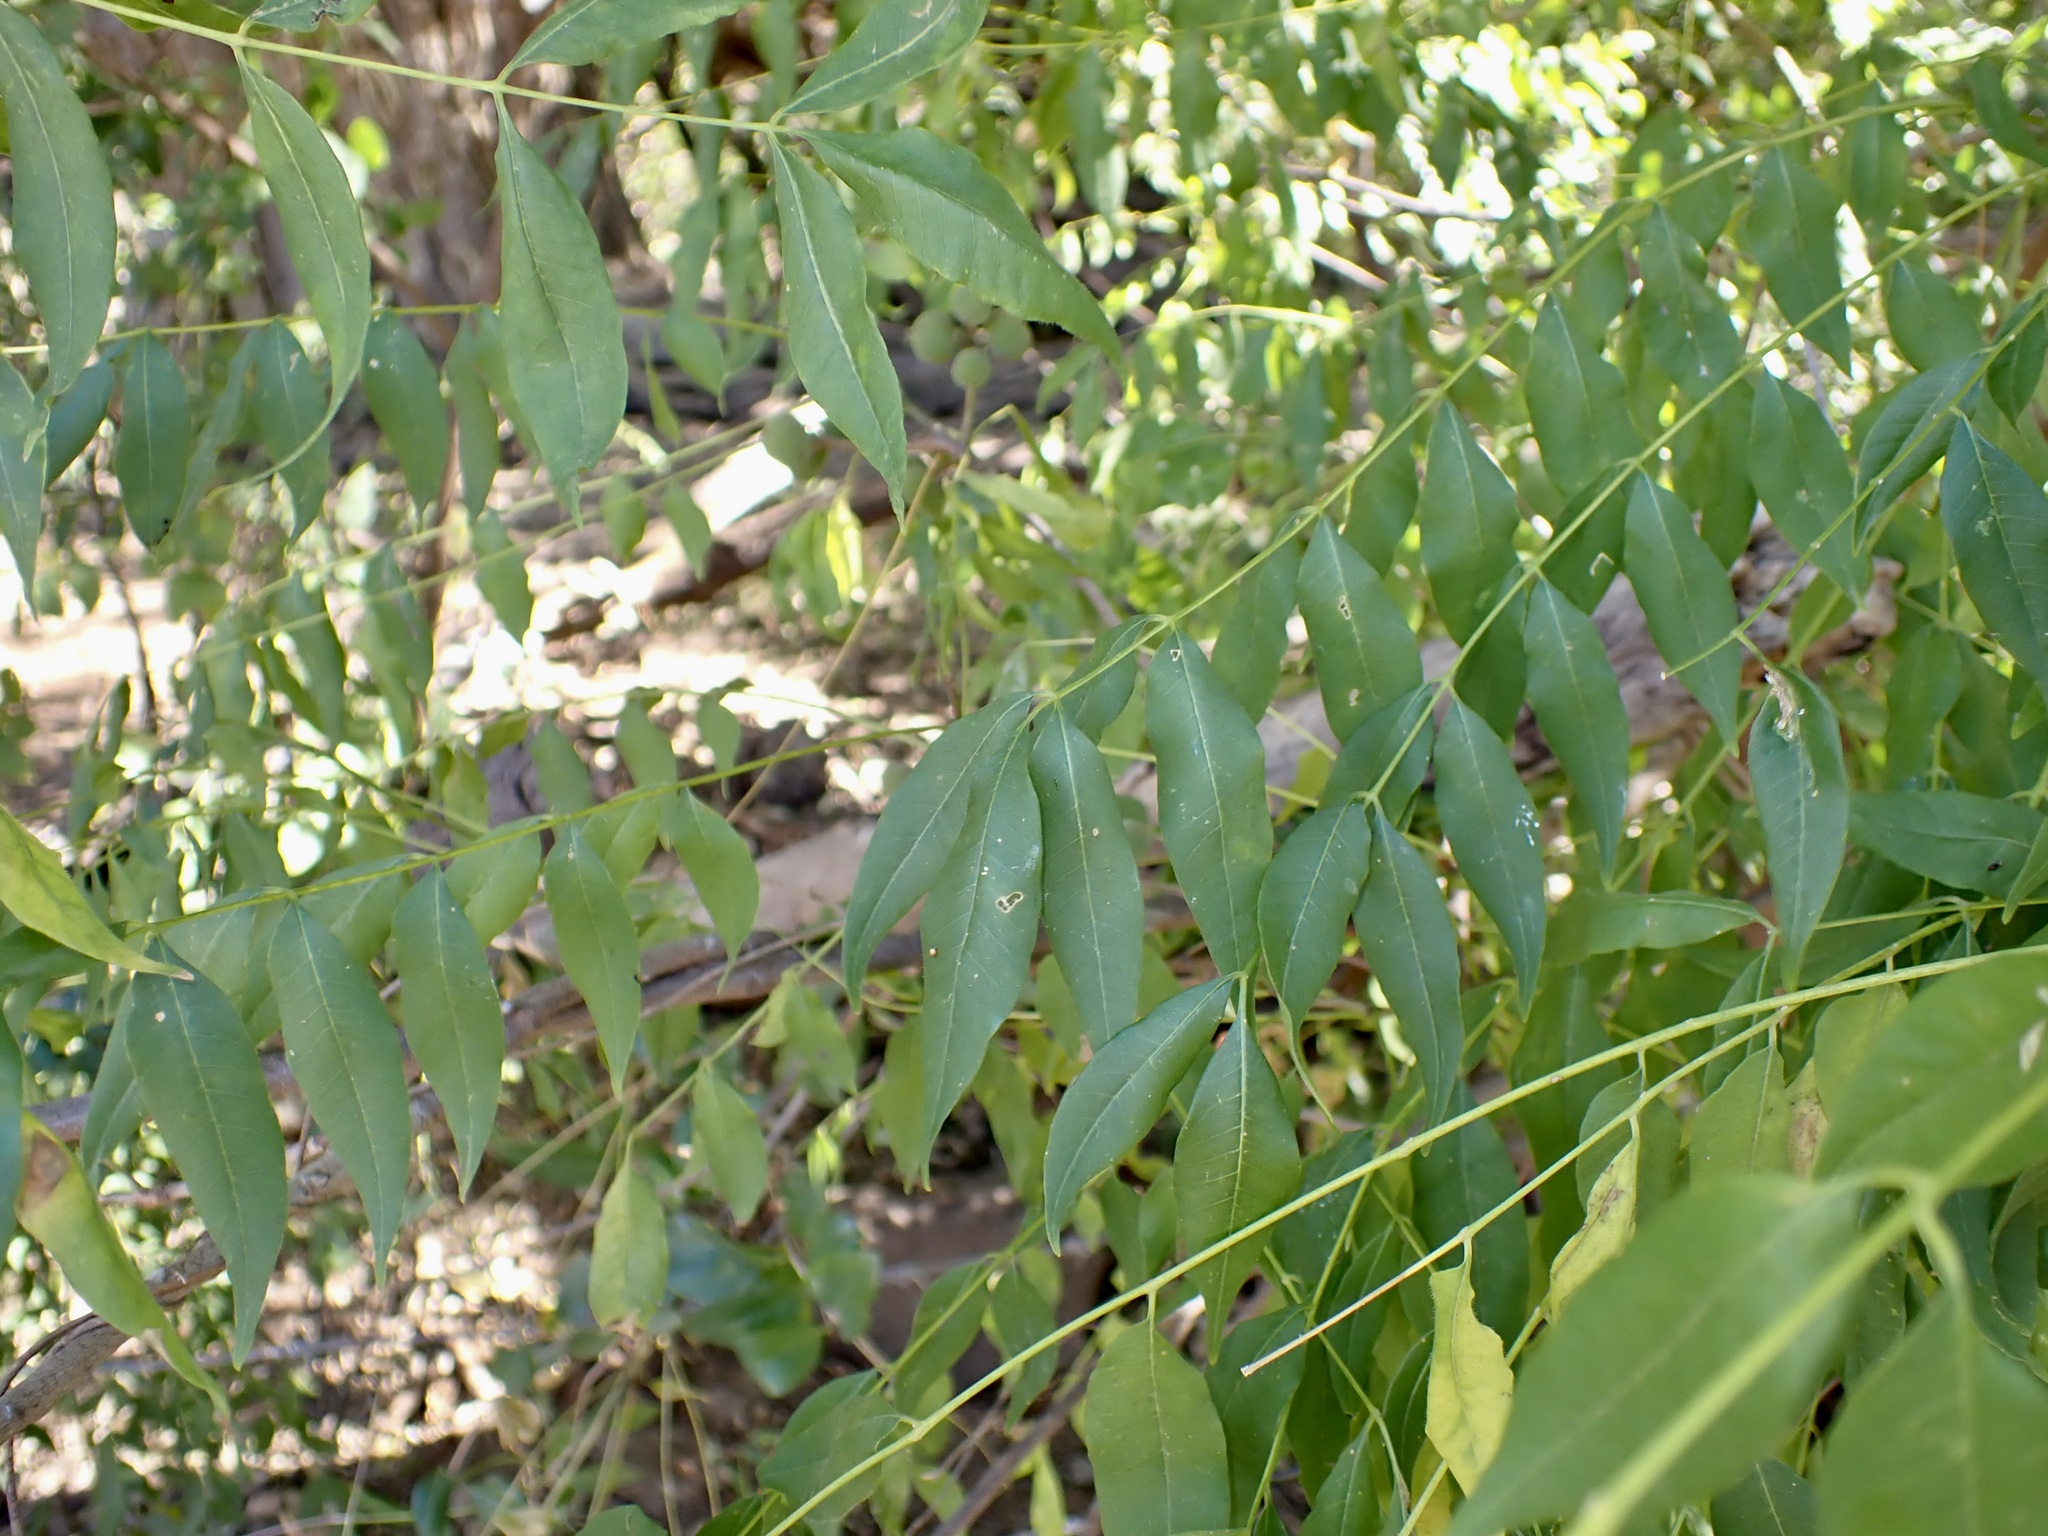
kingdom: Plantae
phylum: Tracheophyta
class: Magnoliopsida
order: Sapindales
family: Meliaceae
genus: Trichilia
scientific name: Trichilia hirta
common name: Red-cedar
